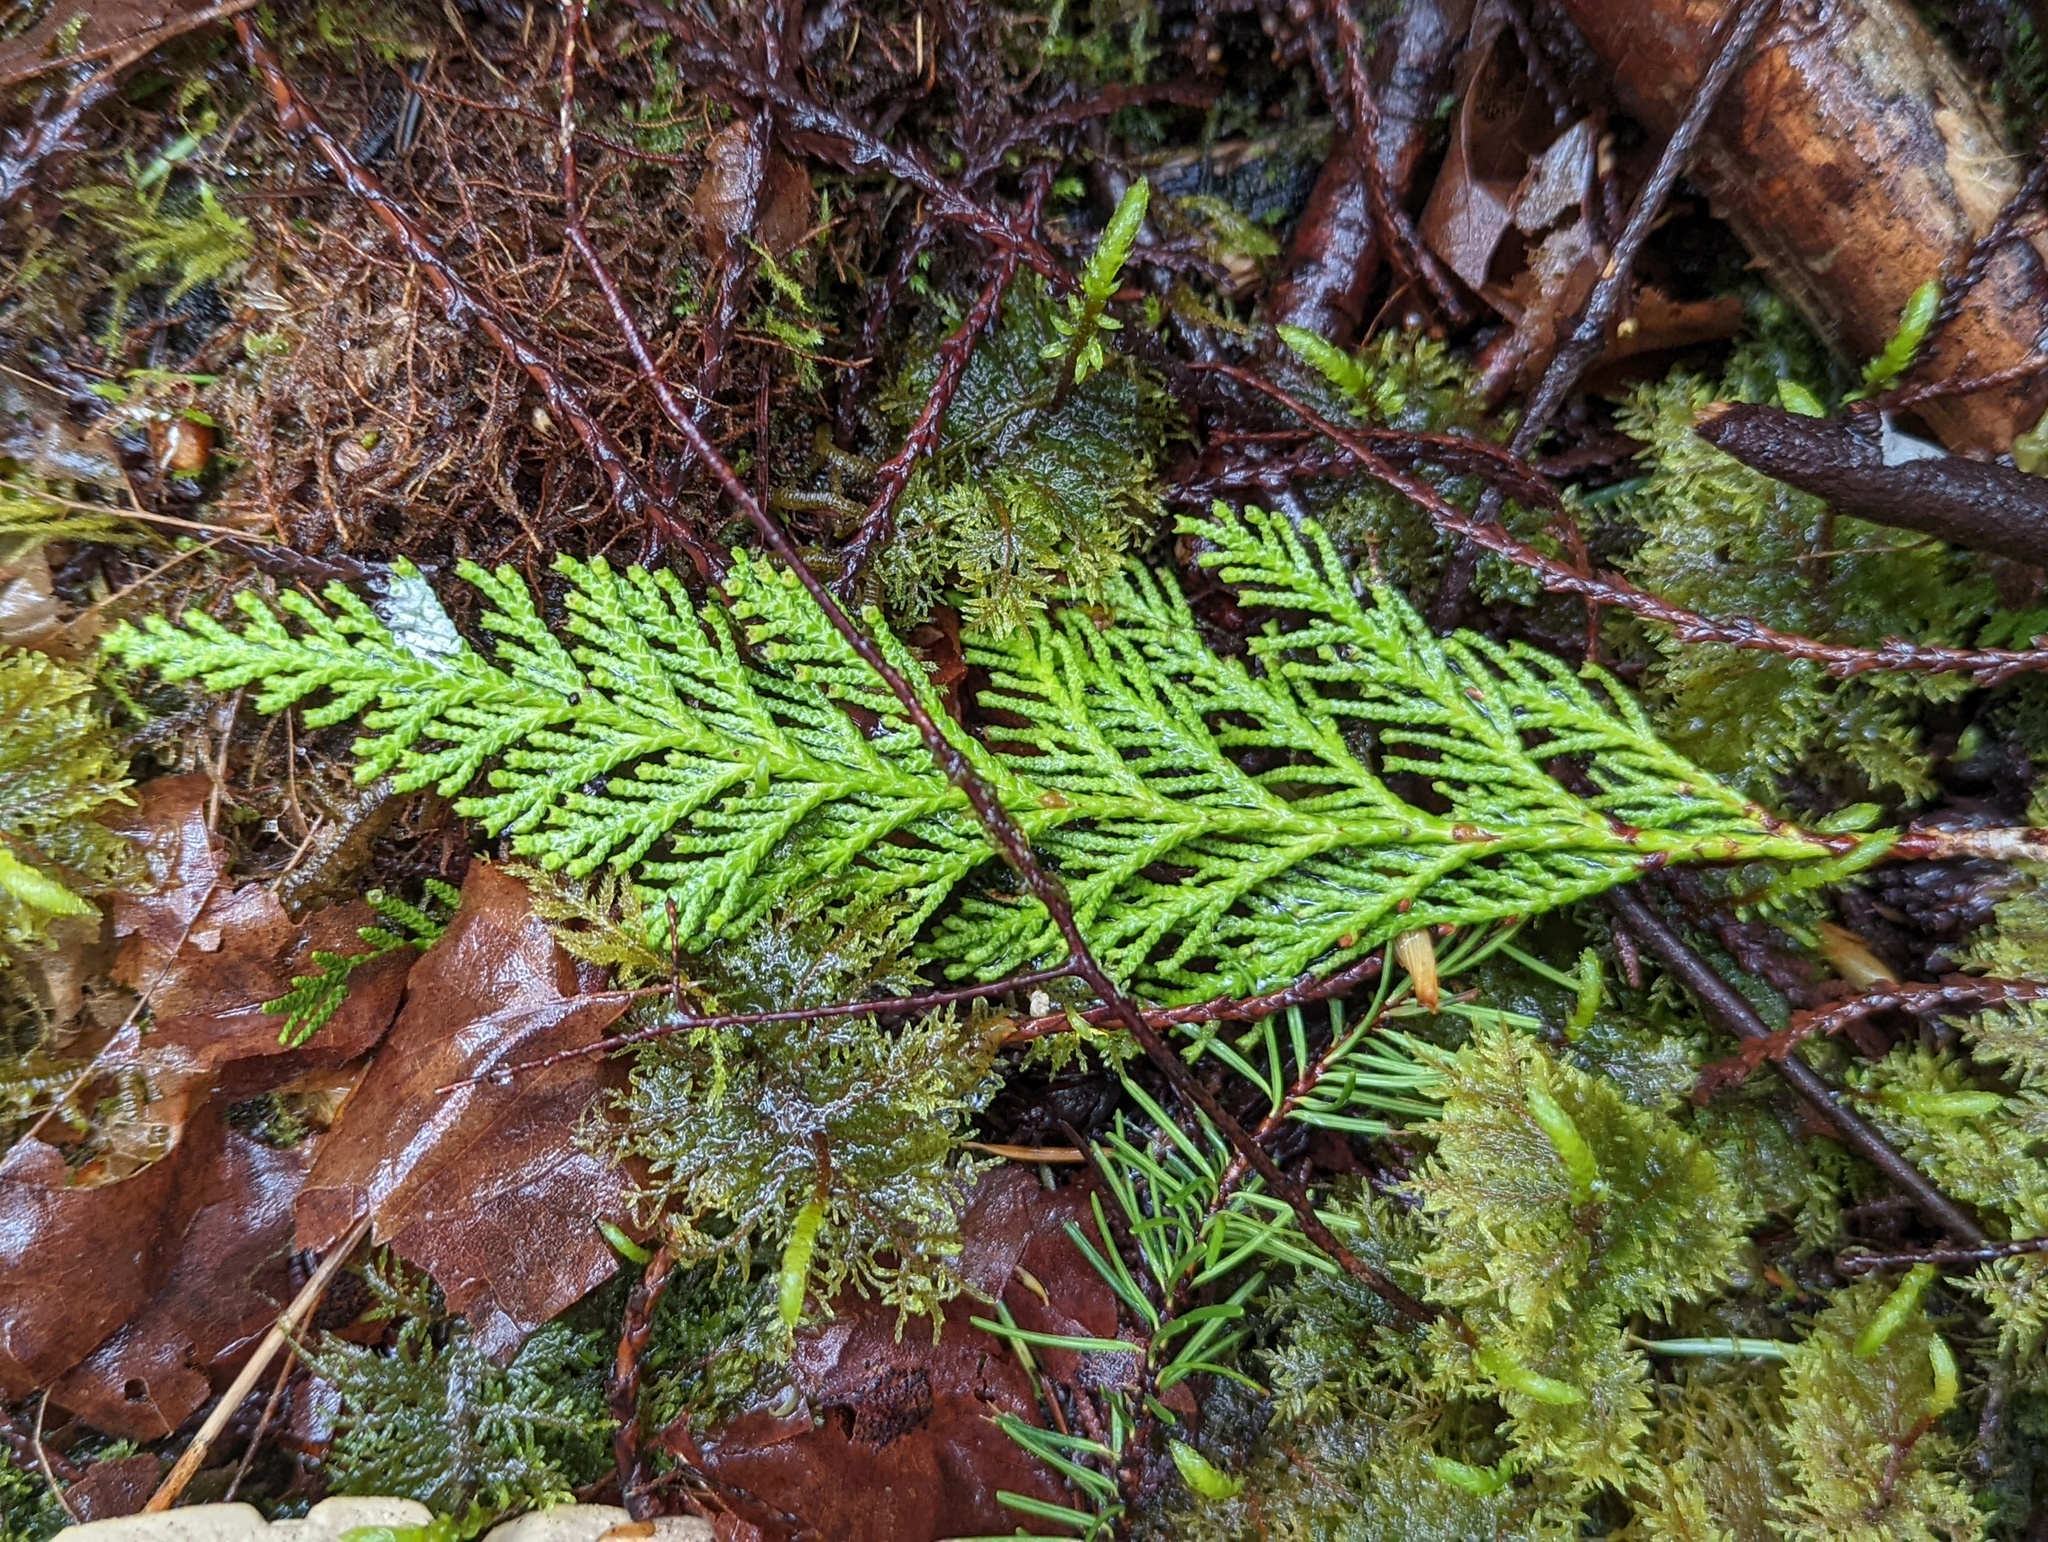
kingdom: Plantae
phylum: Tracheophyta
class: Pinopsida
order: Pinales
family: Cupressaceae
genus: Thuja
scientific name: Thuja plicata
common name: Western red-cedar
